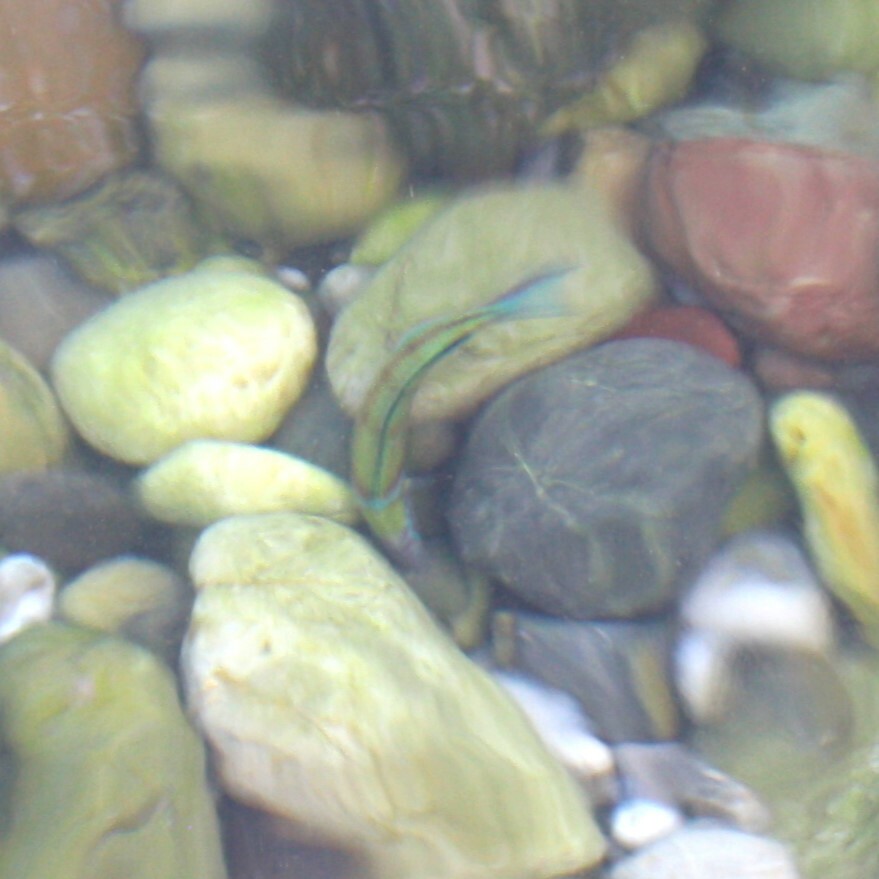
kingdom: Animalia
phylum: Chordata
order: Perciformes
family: Labridae
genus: Thalassoma
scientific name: Thalassoma pavo
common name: Ornate wrasse
